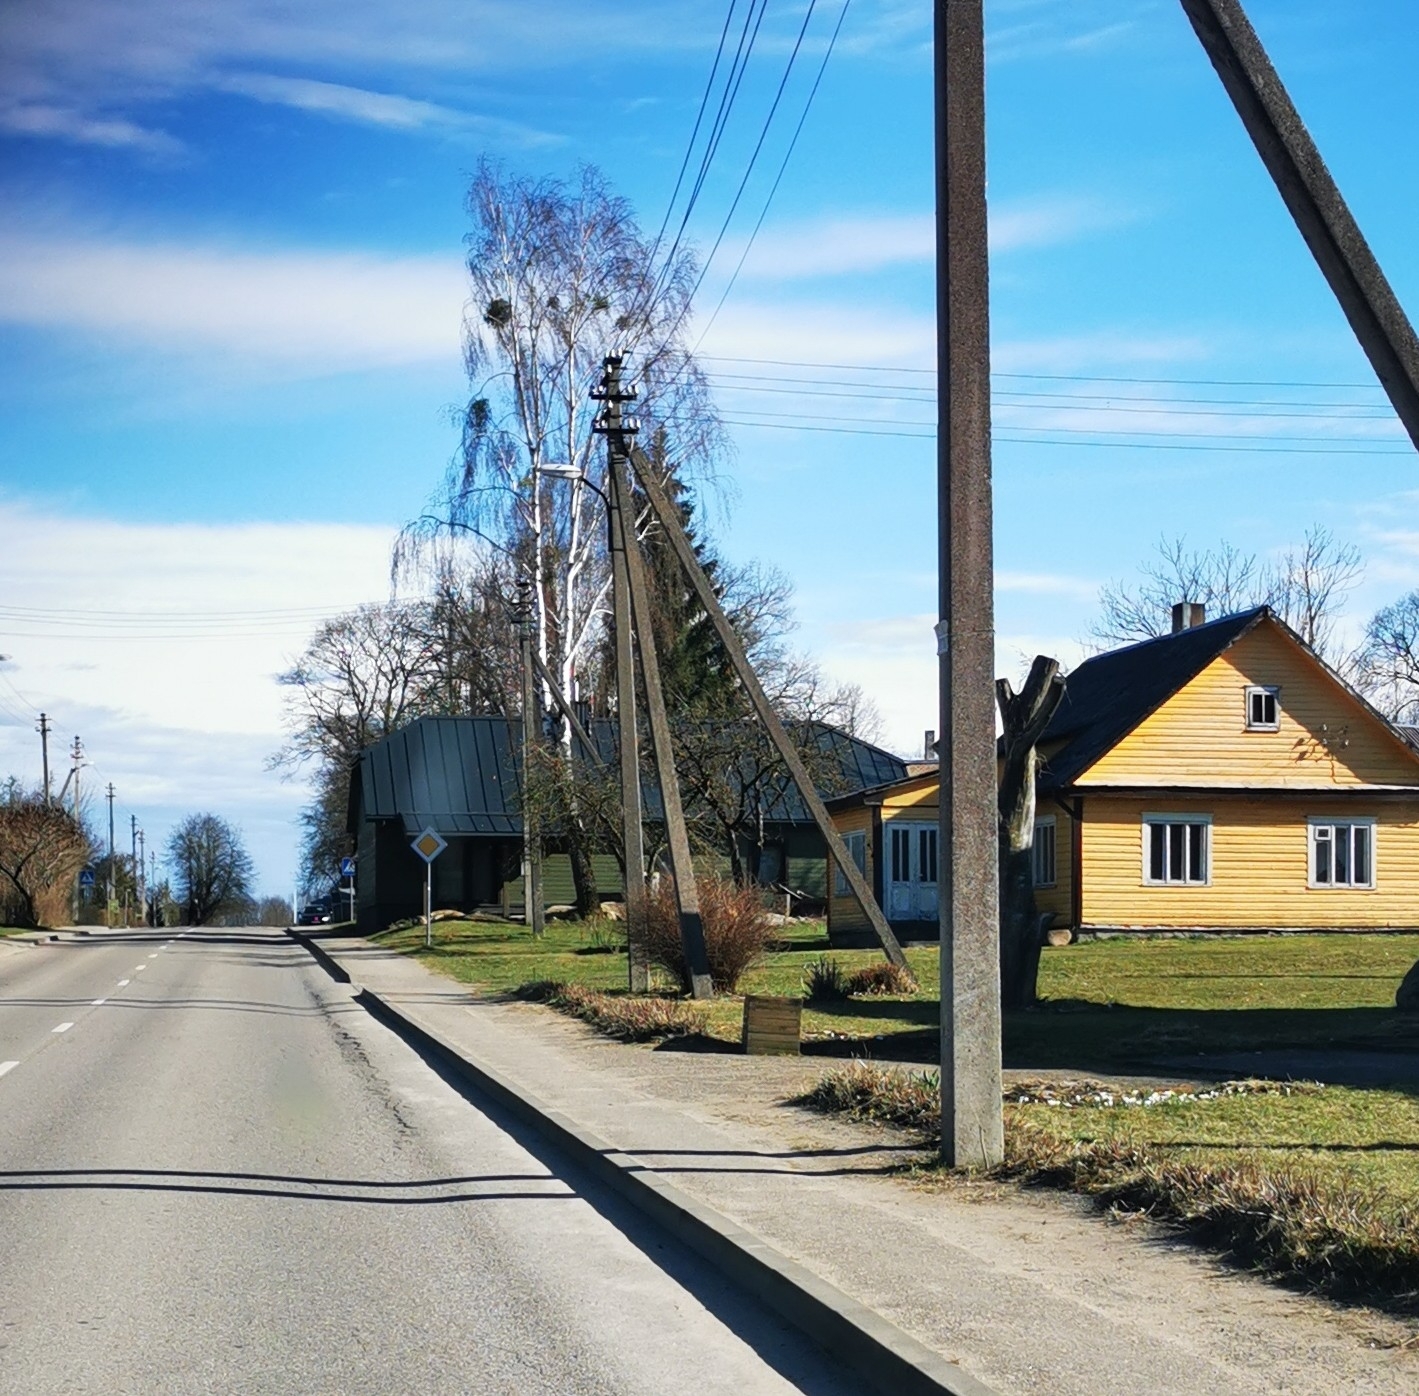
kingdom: Plantae
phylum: Tracheophyta
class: Magnoliopsida
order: Santalales
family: Viscaceae
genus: Viscum
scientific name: Viscum album
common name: Mistletoe
